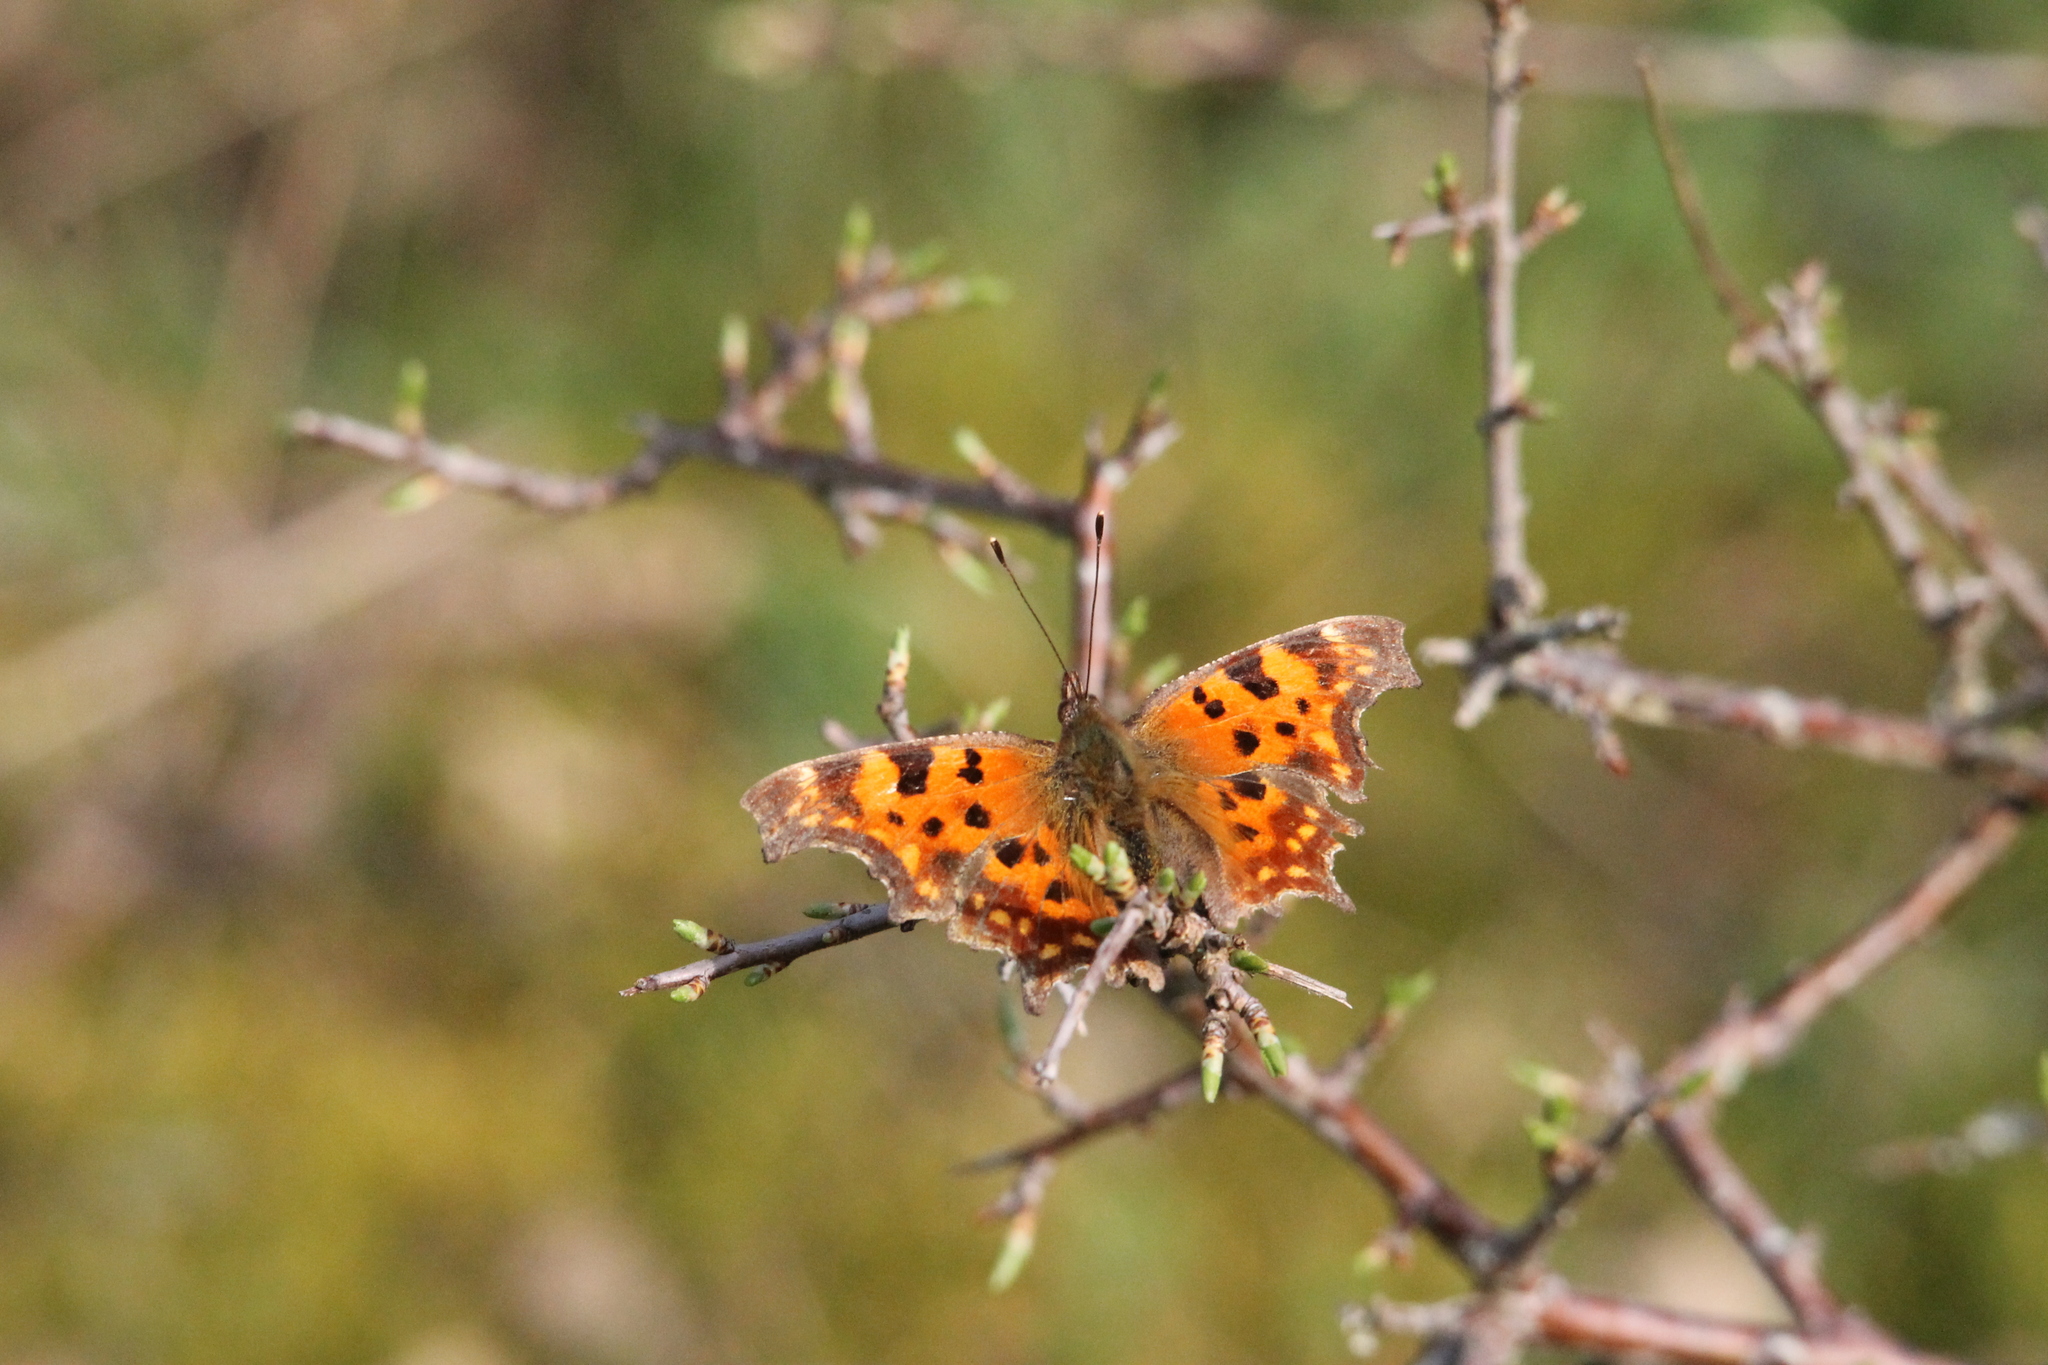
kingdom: Animalia
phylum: Arthropoda
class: Insecta
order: Lepidoptera
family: Nymphalidae
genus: Polygonia
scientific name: Polygonia c-album
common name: Comma
